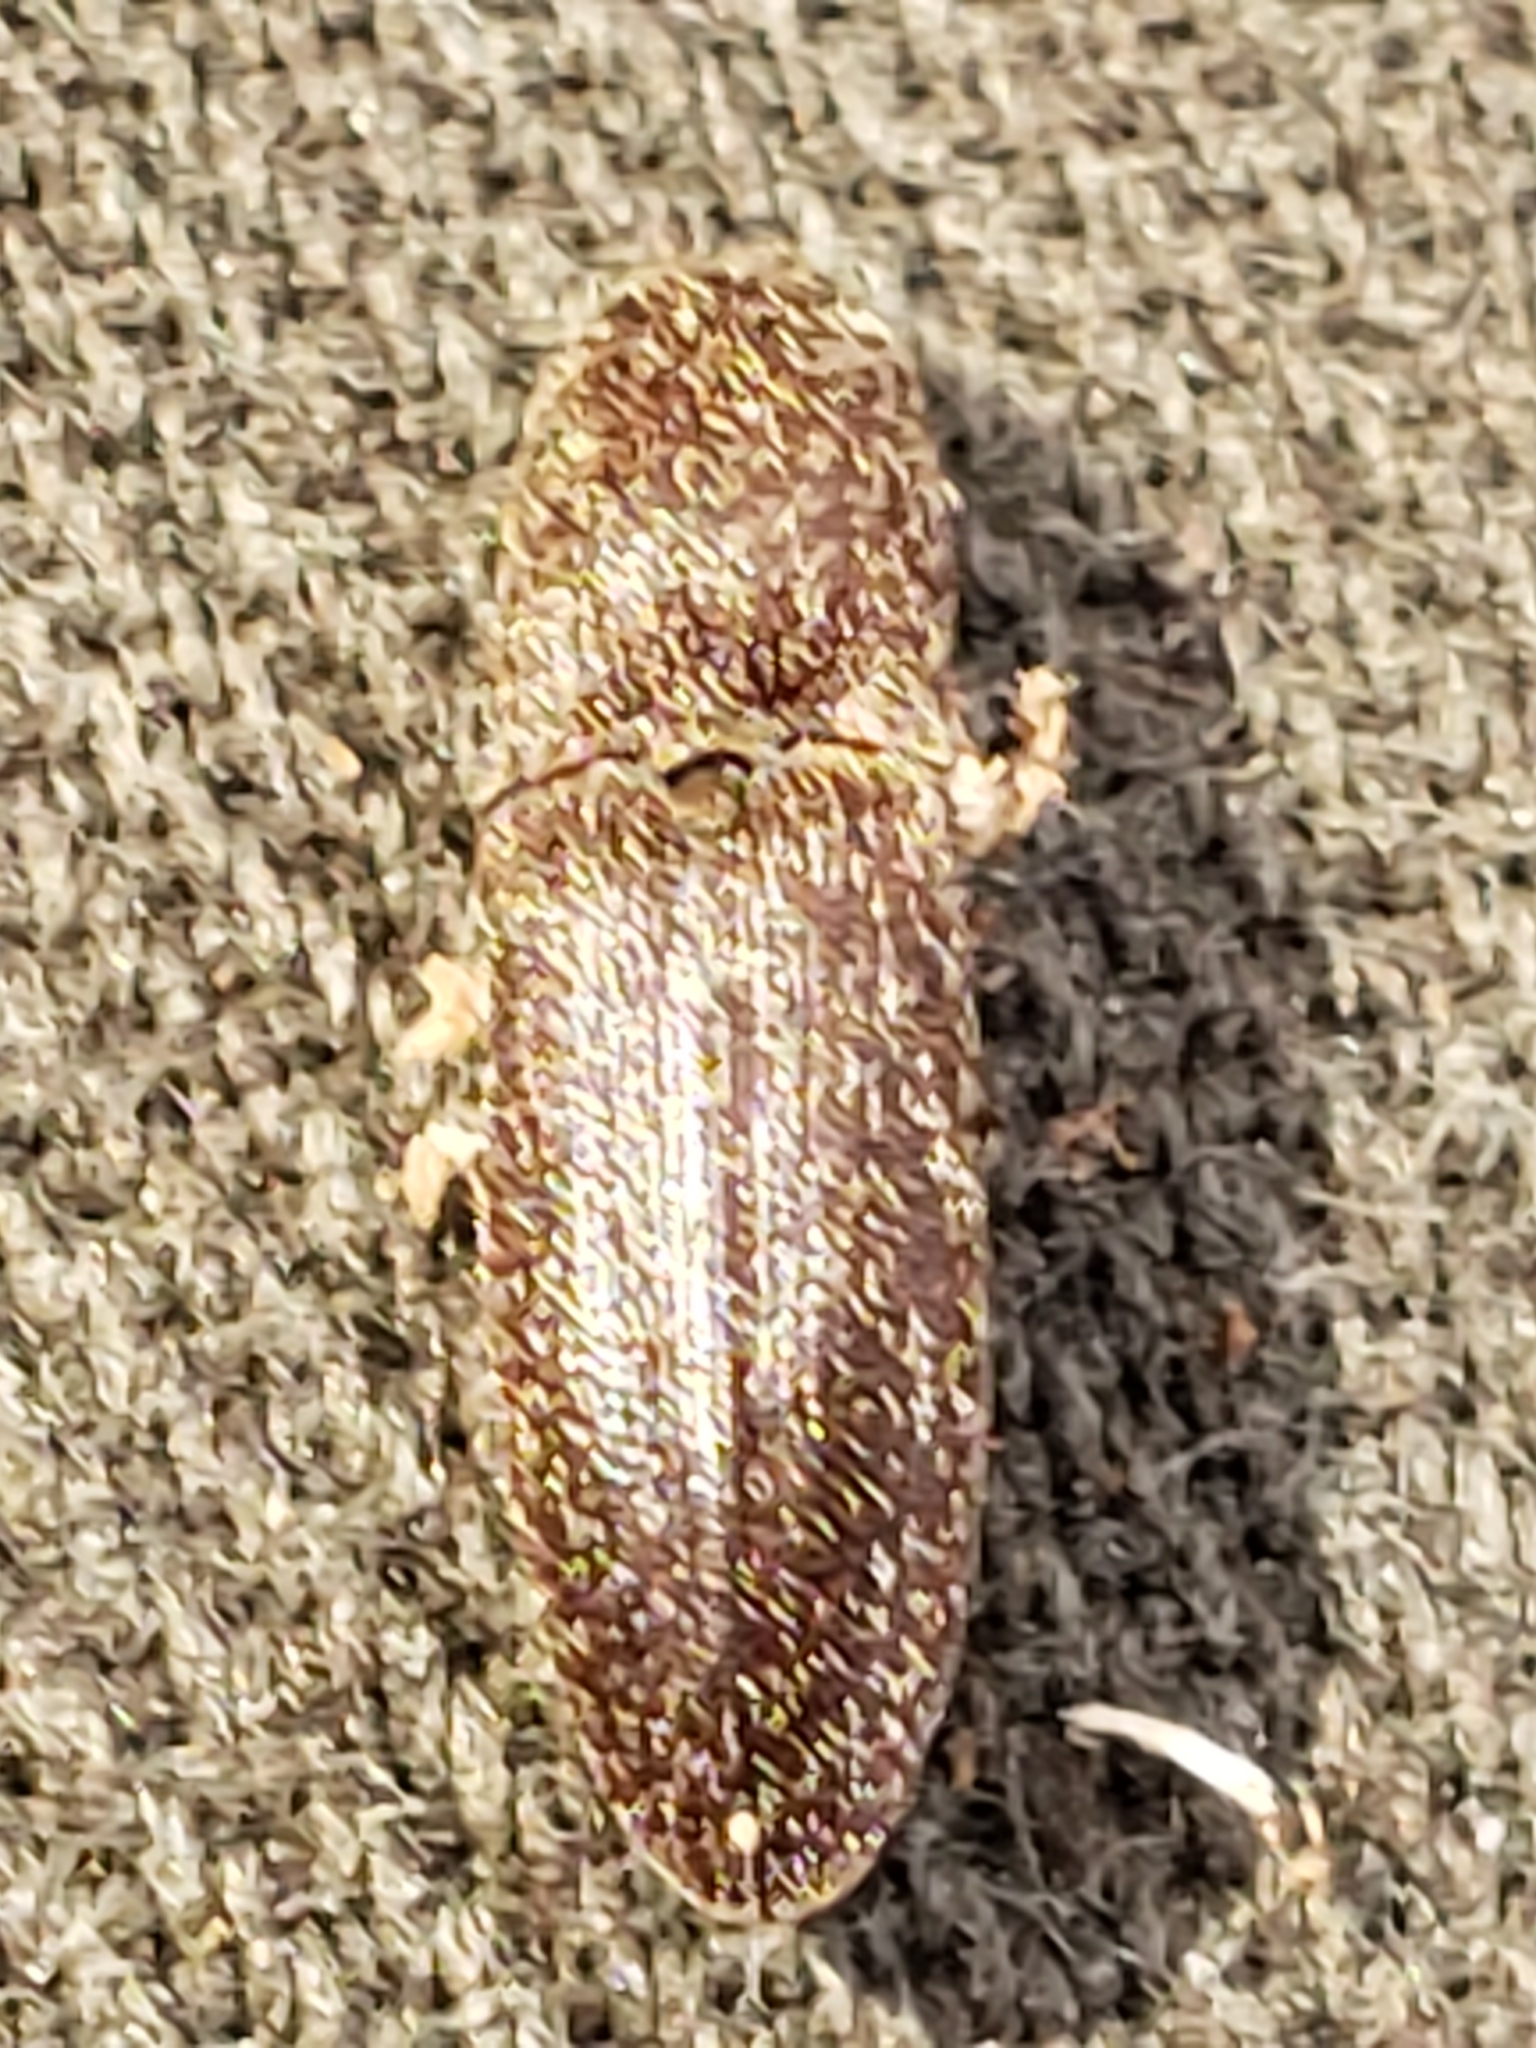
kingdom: Animalia
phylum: Arthropoda
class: Insecta
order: Coleoptera
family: Elateridae
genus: Lacon
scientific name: Lacon impressicollis
